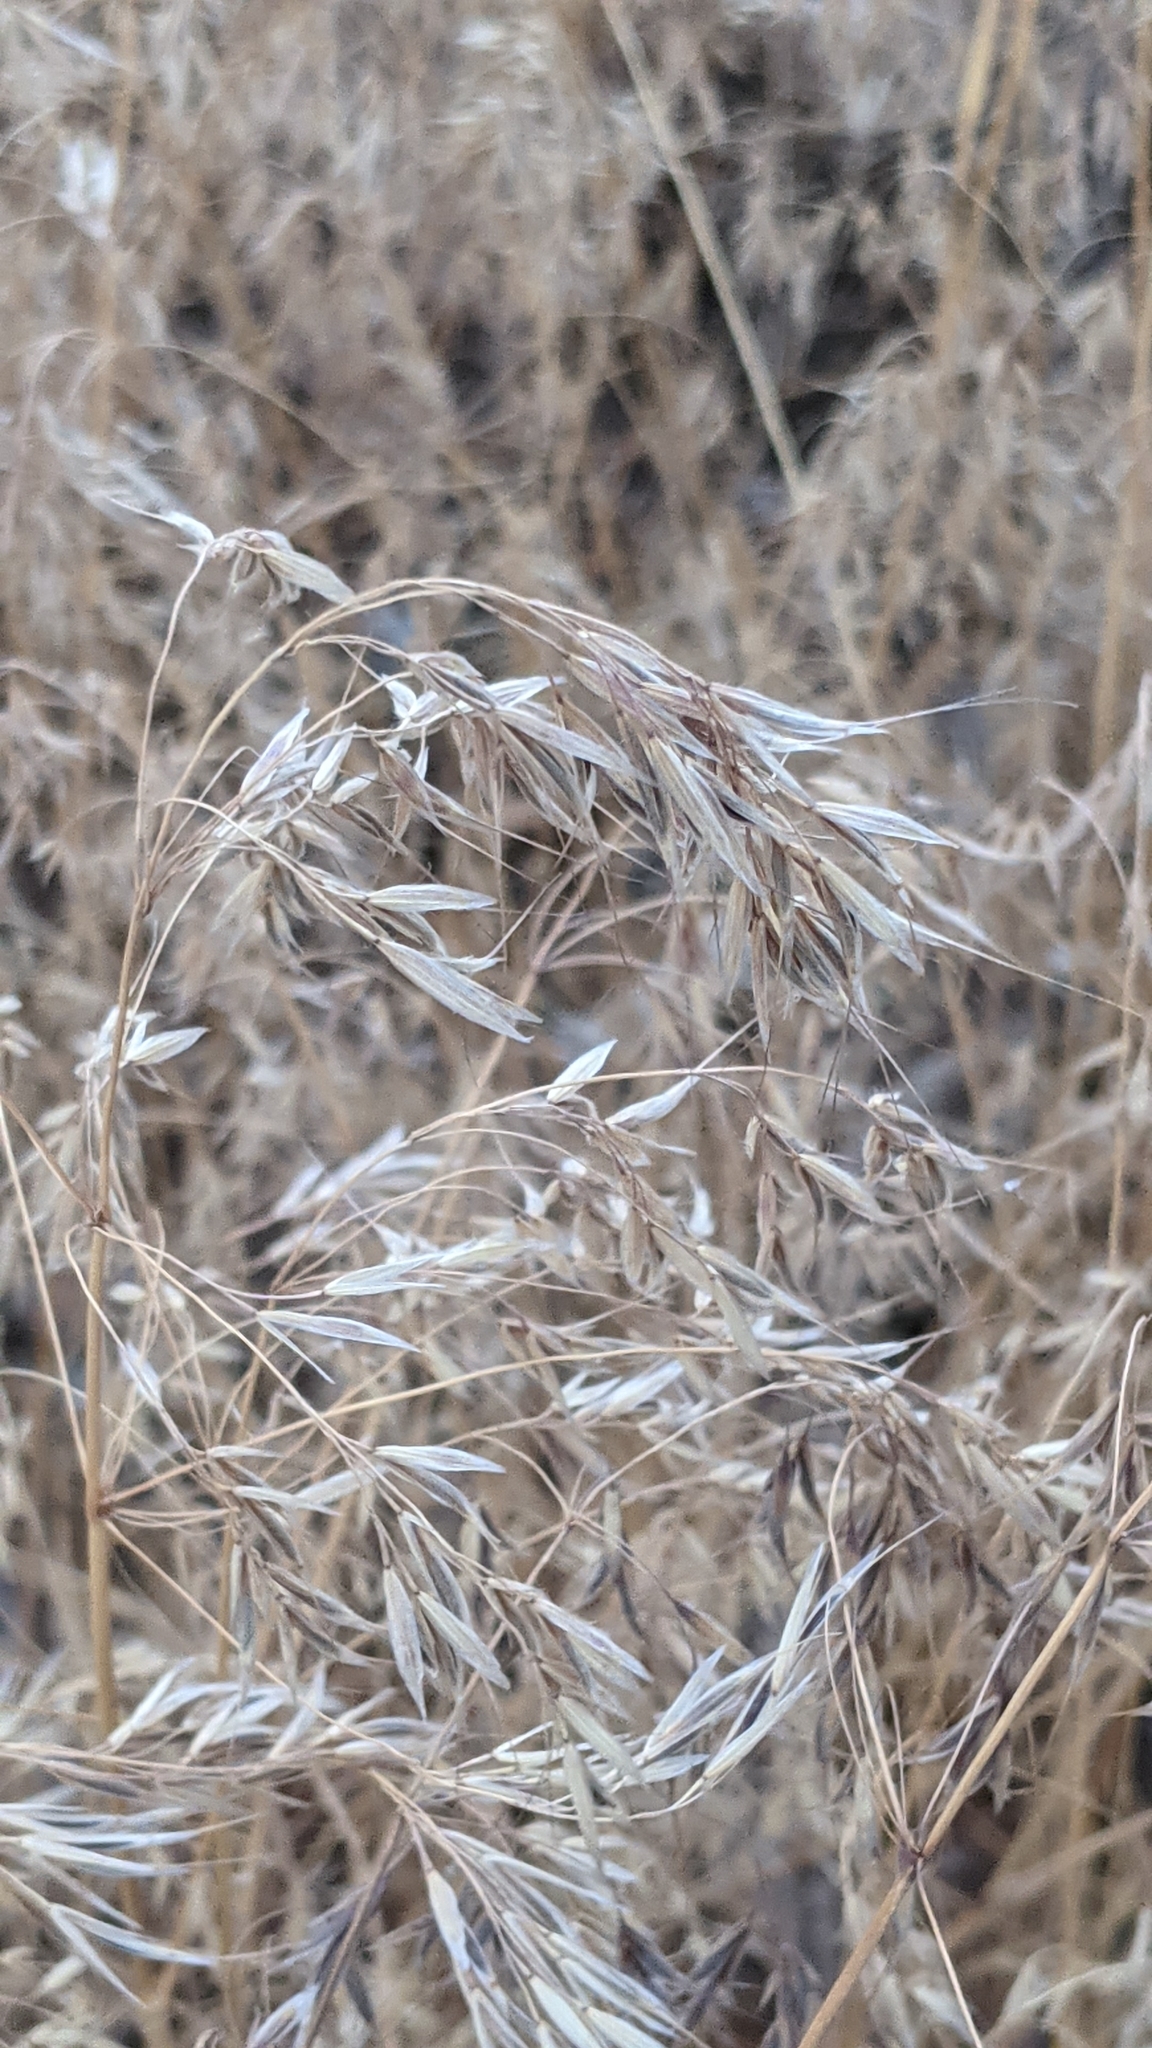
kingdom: Plantae
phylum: Tracheophyta
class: Liliopsida
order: Poales
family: Poaceae
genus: Bromus
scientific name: Bromus tectorum
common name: Cheatgrass
